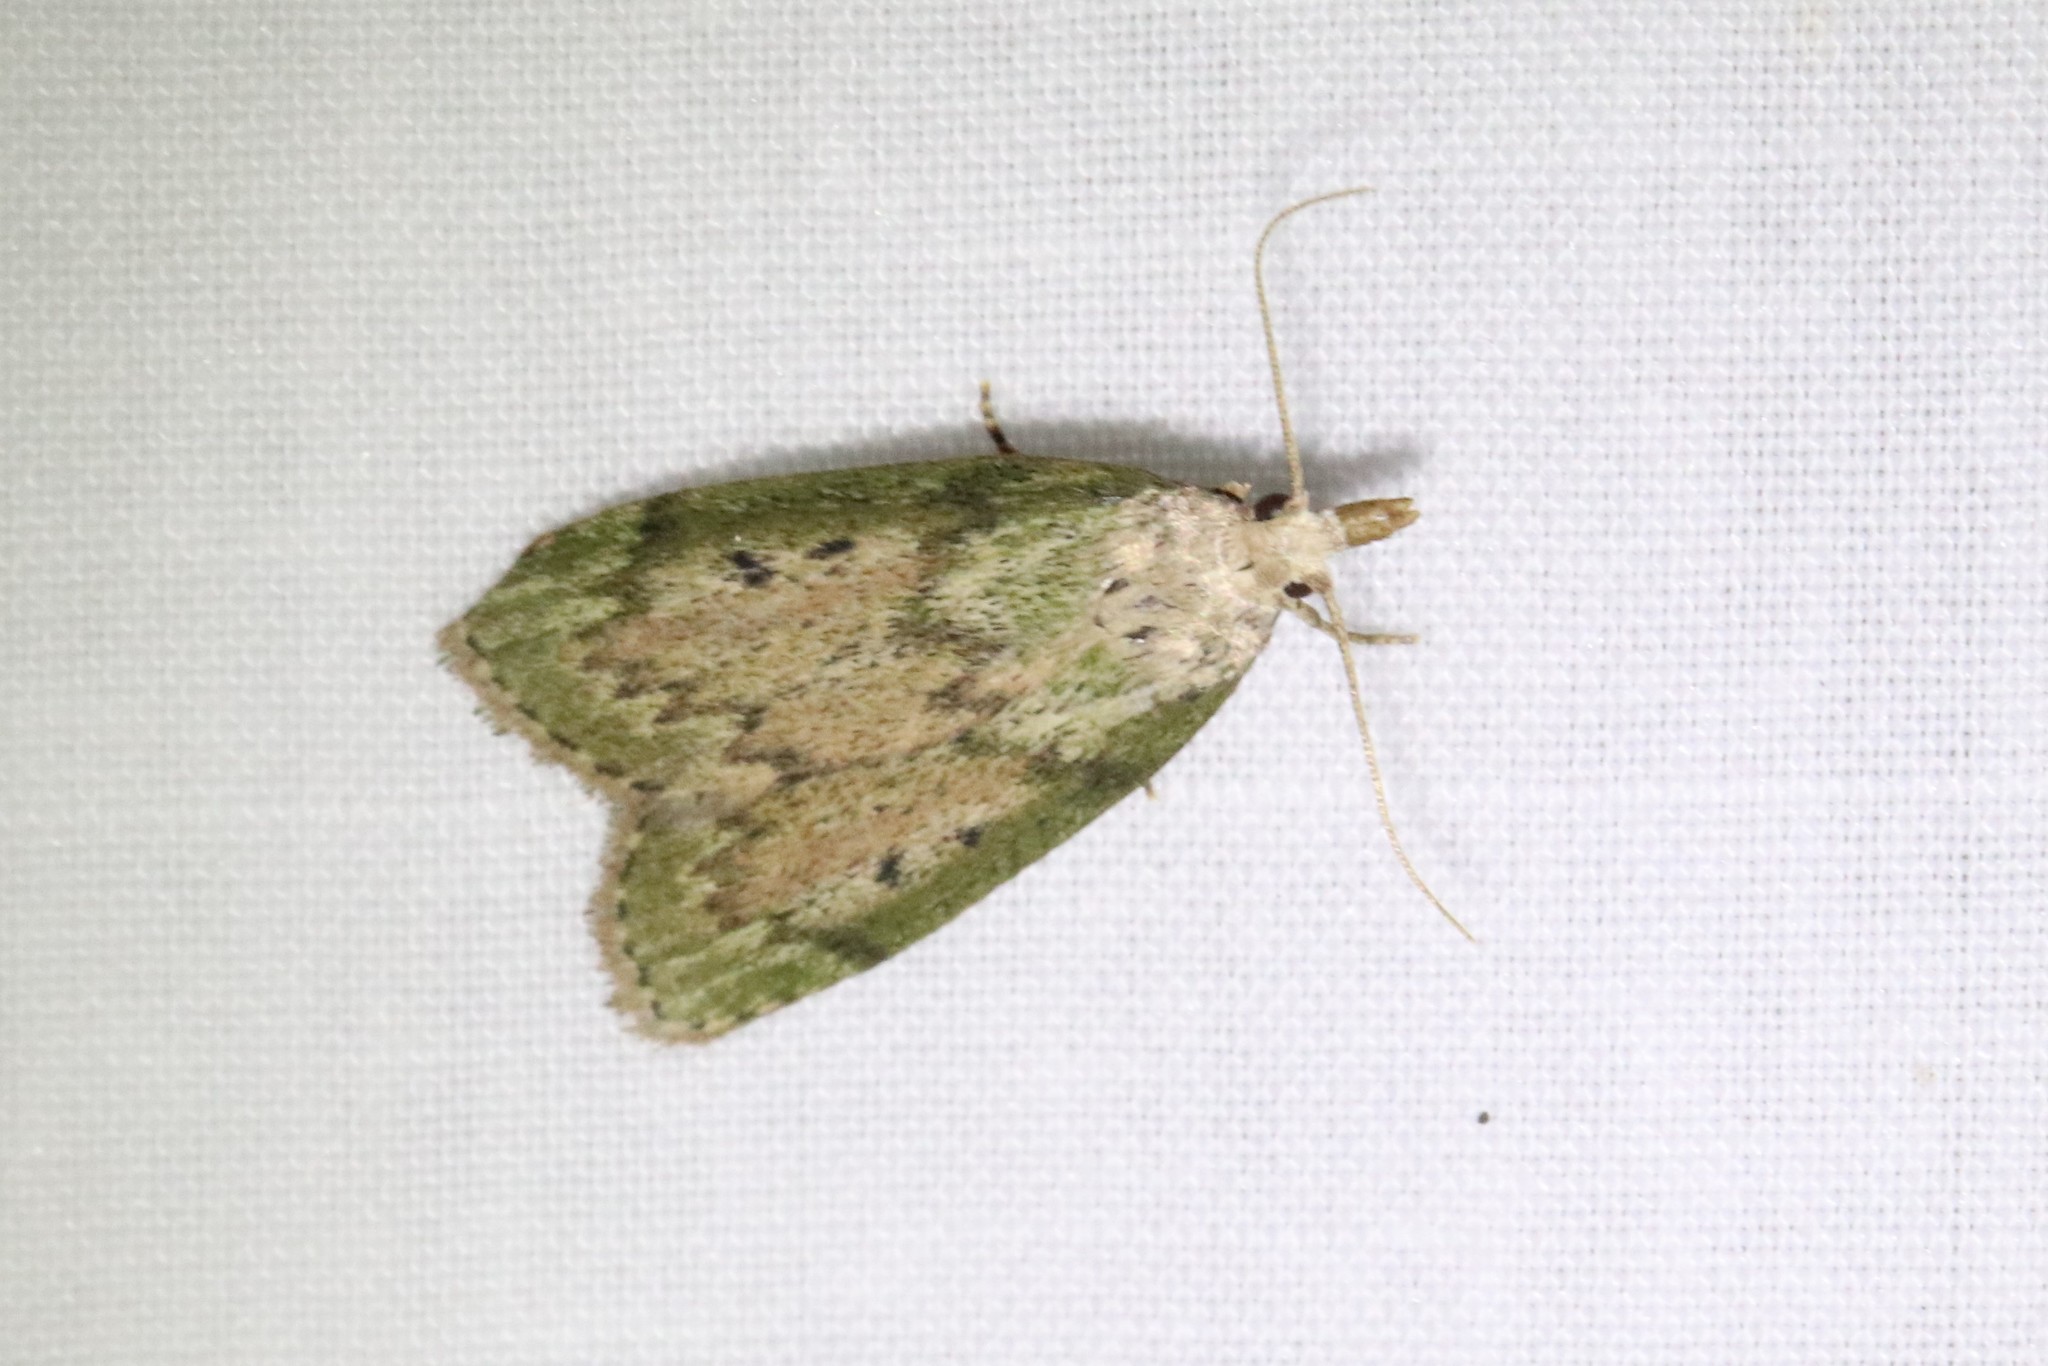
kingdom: Animalia
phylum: Arthropoda
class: Insecta
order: Lepidoptera
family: Pyralidae
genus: Aphomia
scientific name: Aphomia sociella
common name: Bee moth
